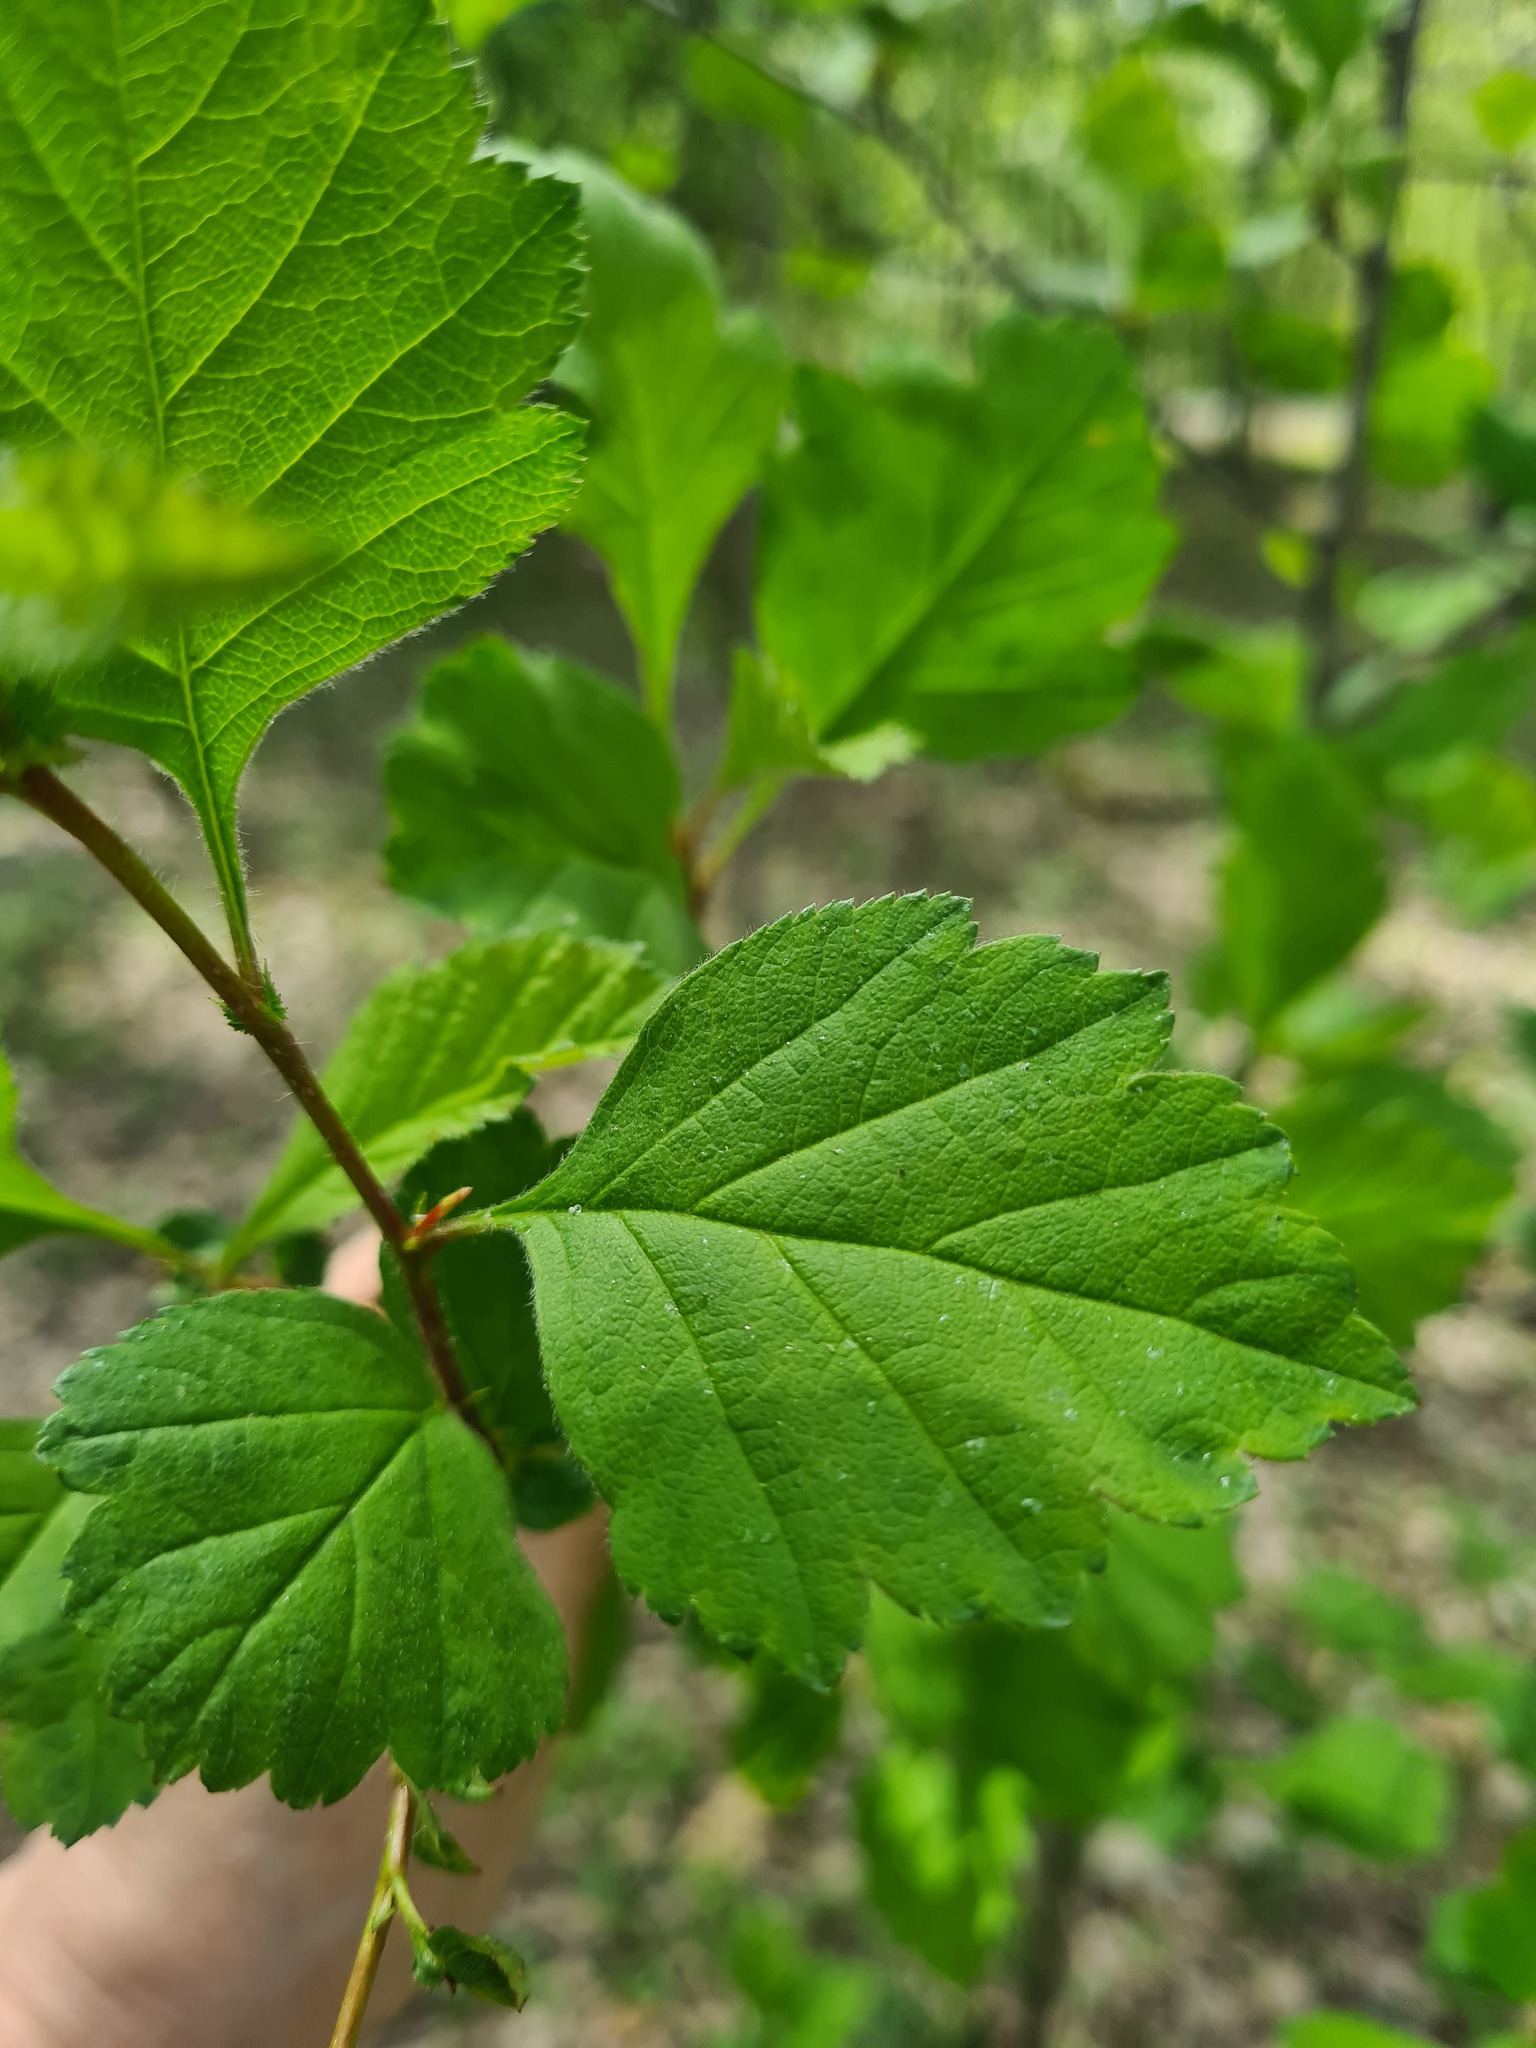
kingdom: Plantae
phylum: Tracheophyta
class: Magnoliopsida
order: Rosales
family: Rosaceae
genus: Crataegus
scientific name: Crataegus sanguinea
